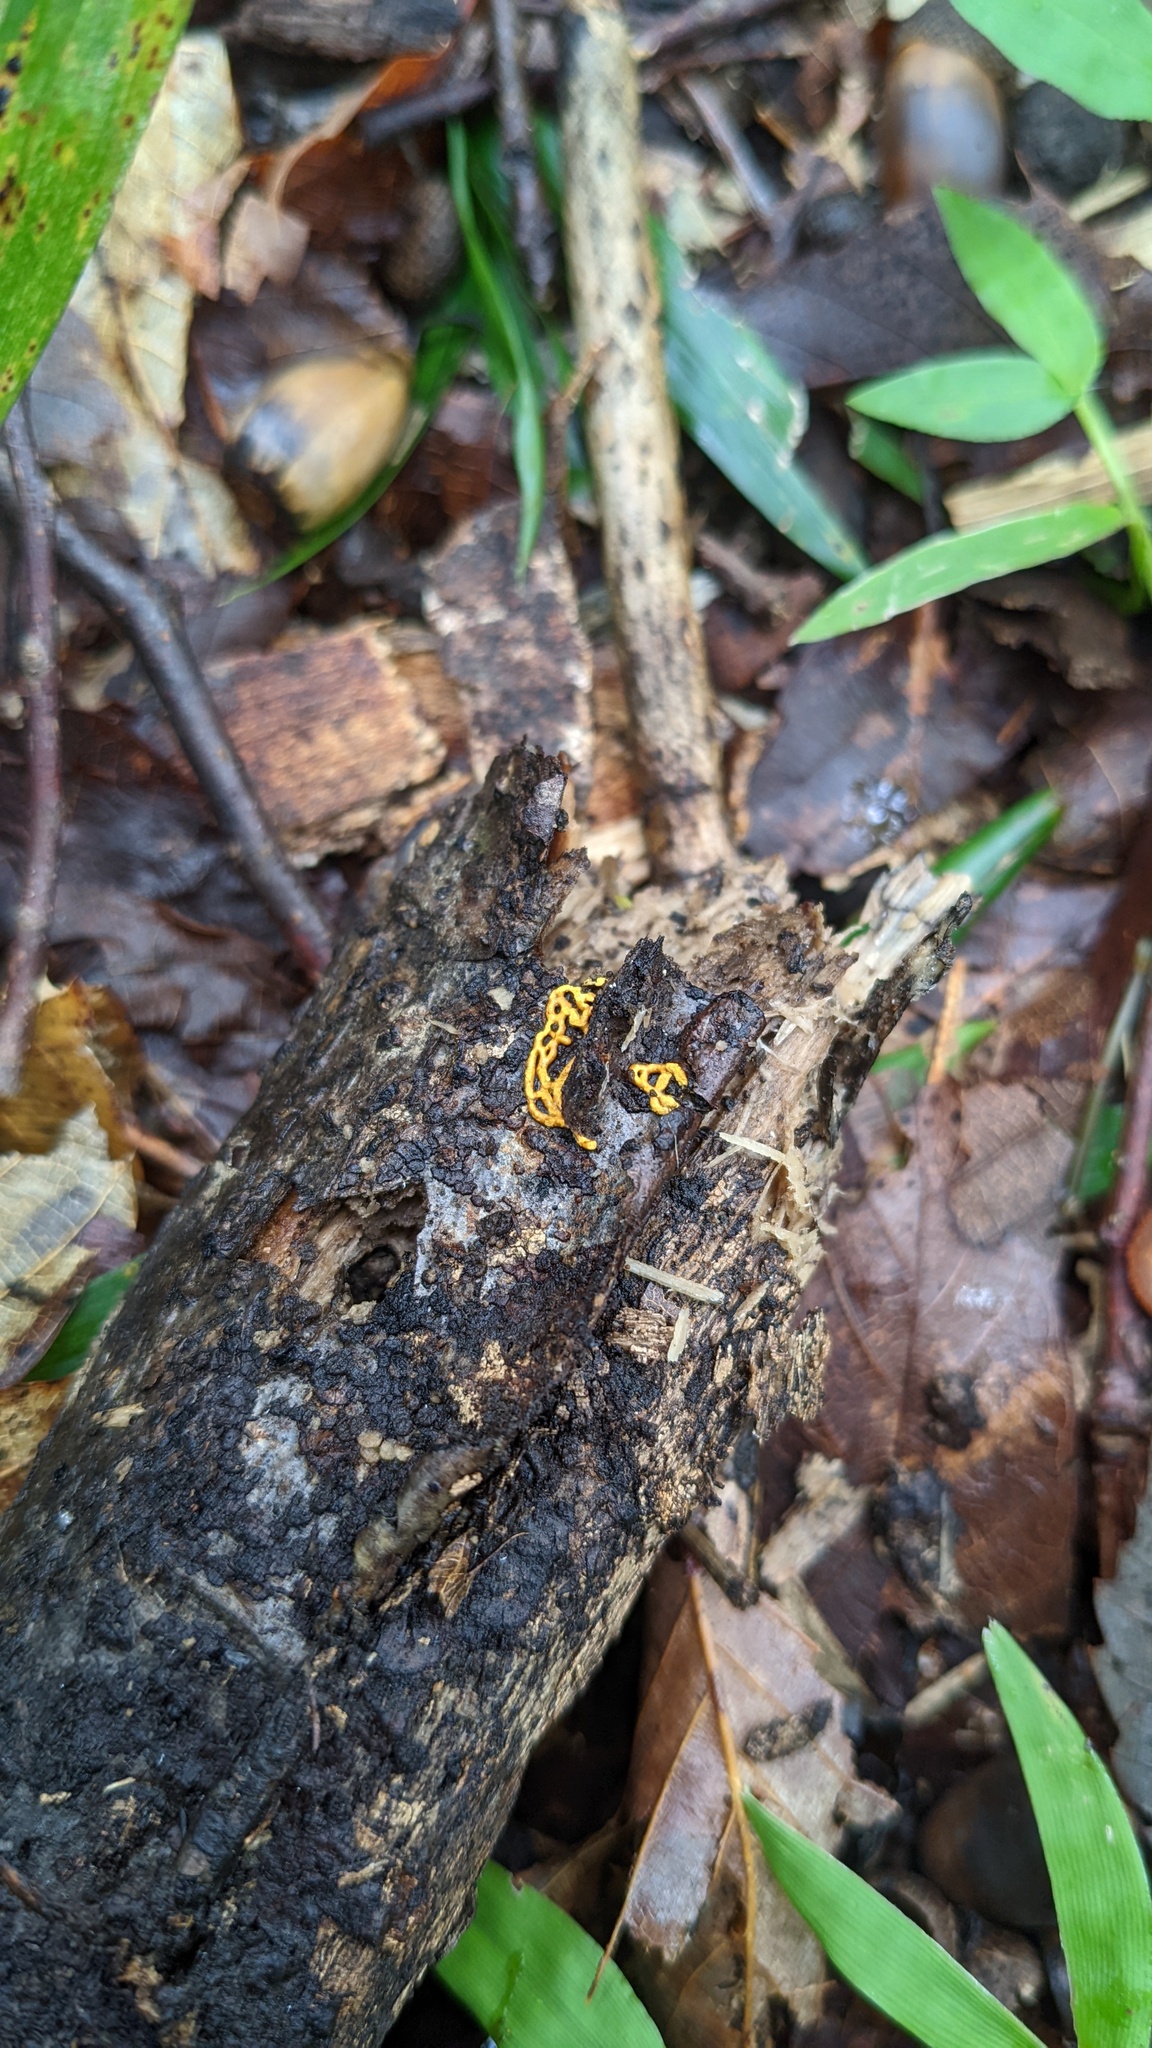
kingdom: Protozoa
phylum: Mycetozoa
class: Myxomycetes
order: Trichiales
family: Arcyriaceae
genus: Hemitrichia
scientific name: Hemitrichia serpula
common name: Pretzel slime mold
